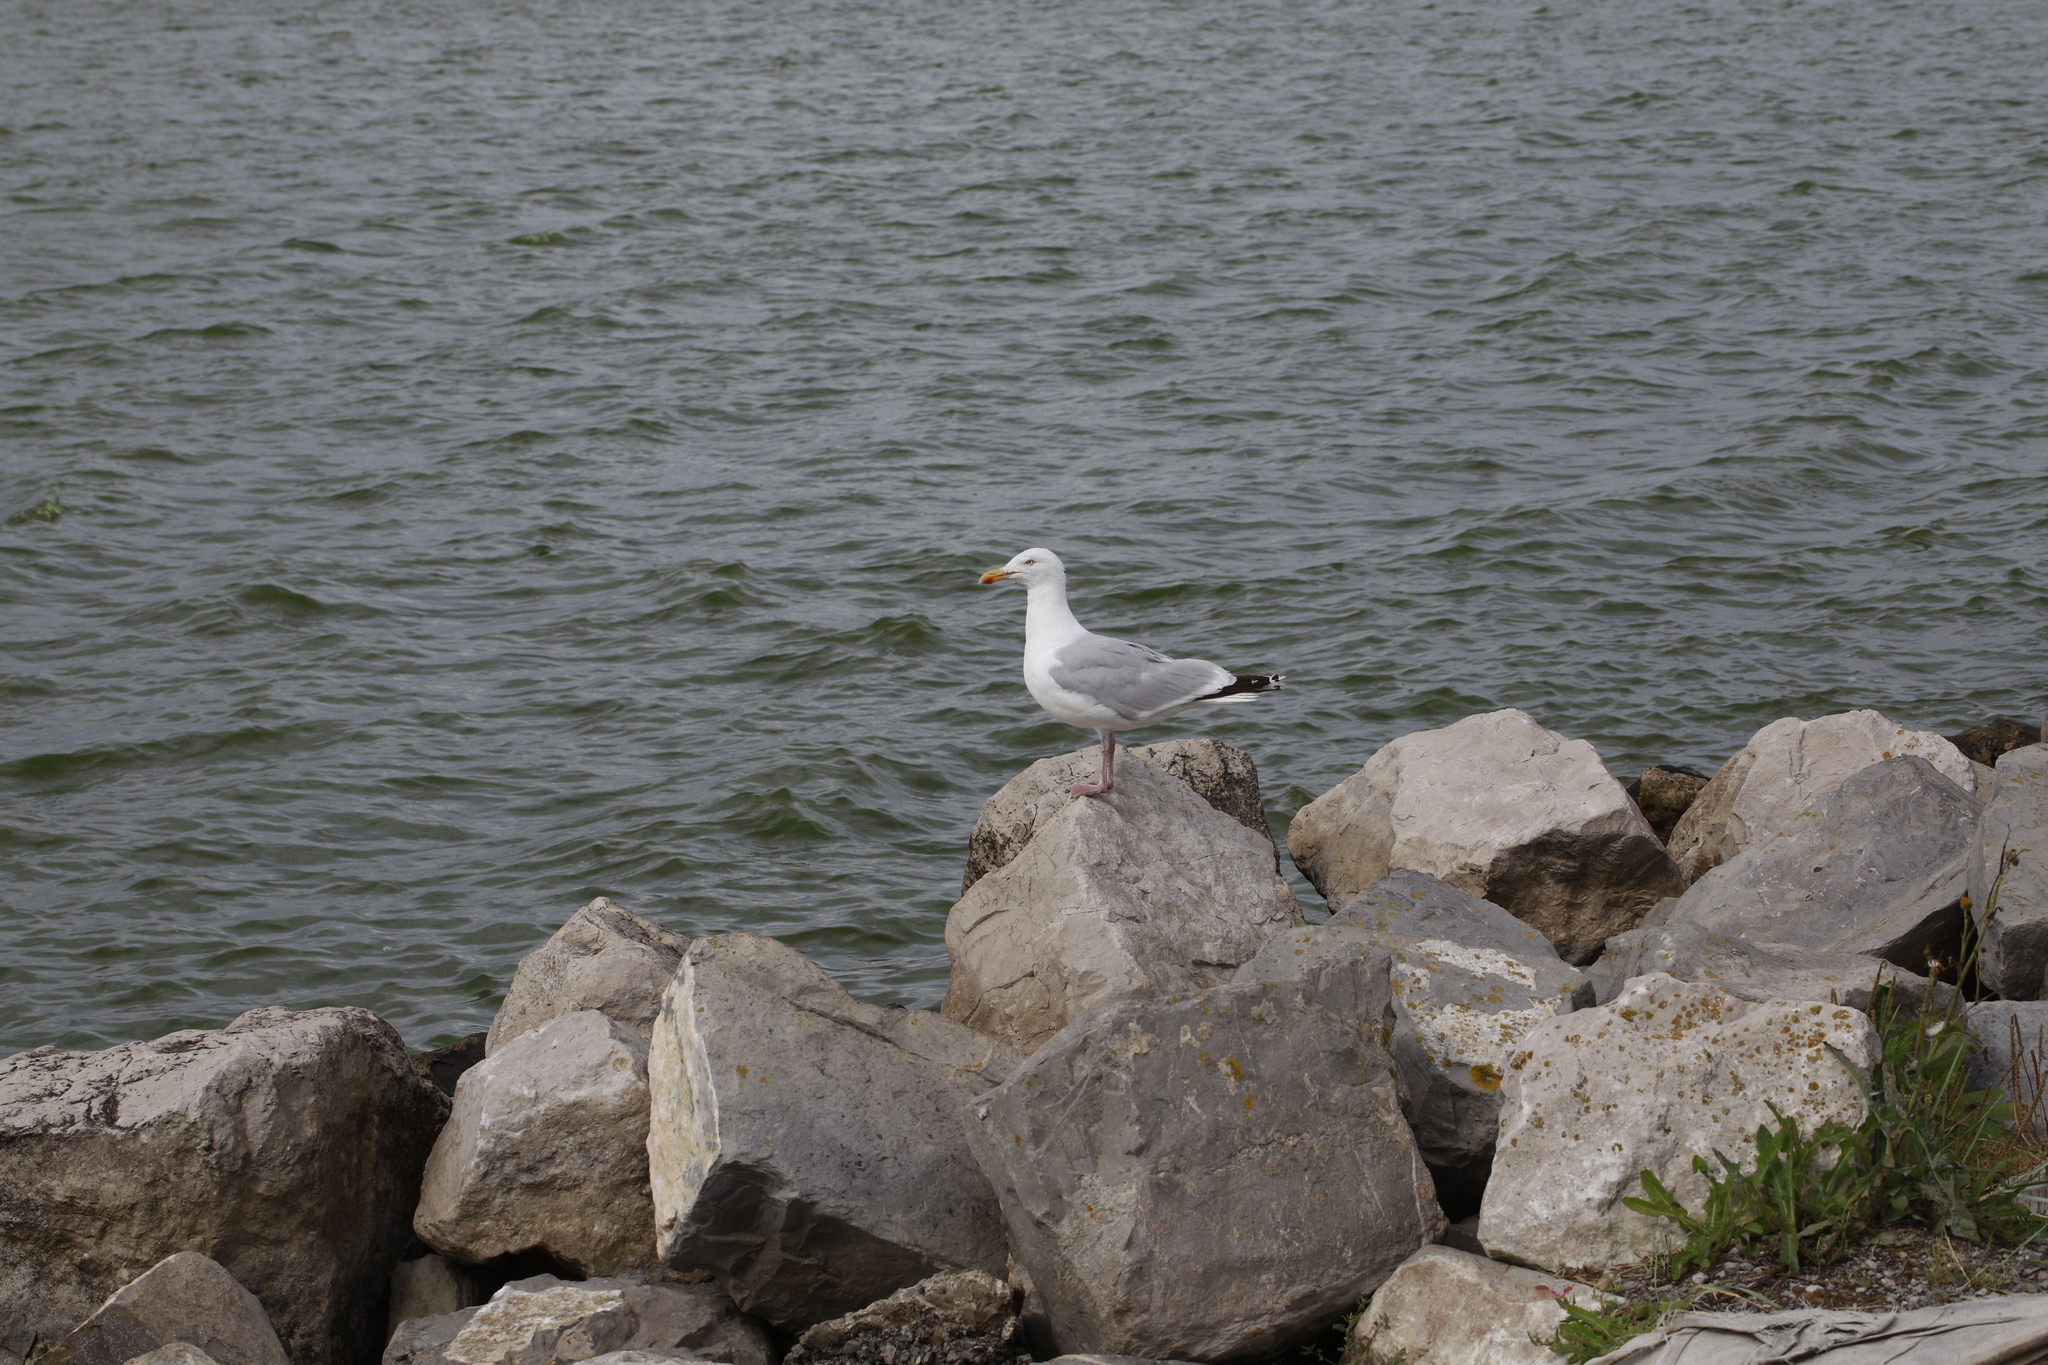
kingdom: Animalia
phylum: Chordata
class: Aves
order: Charadriiformes
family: Laridae
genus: Larus
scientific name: Larus argentatus
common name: Herring gull
